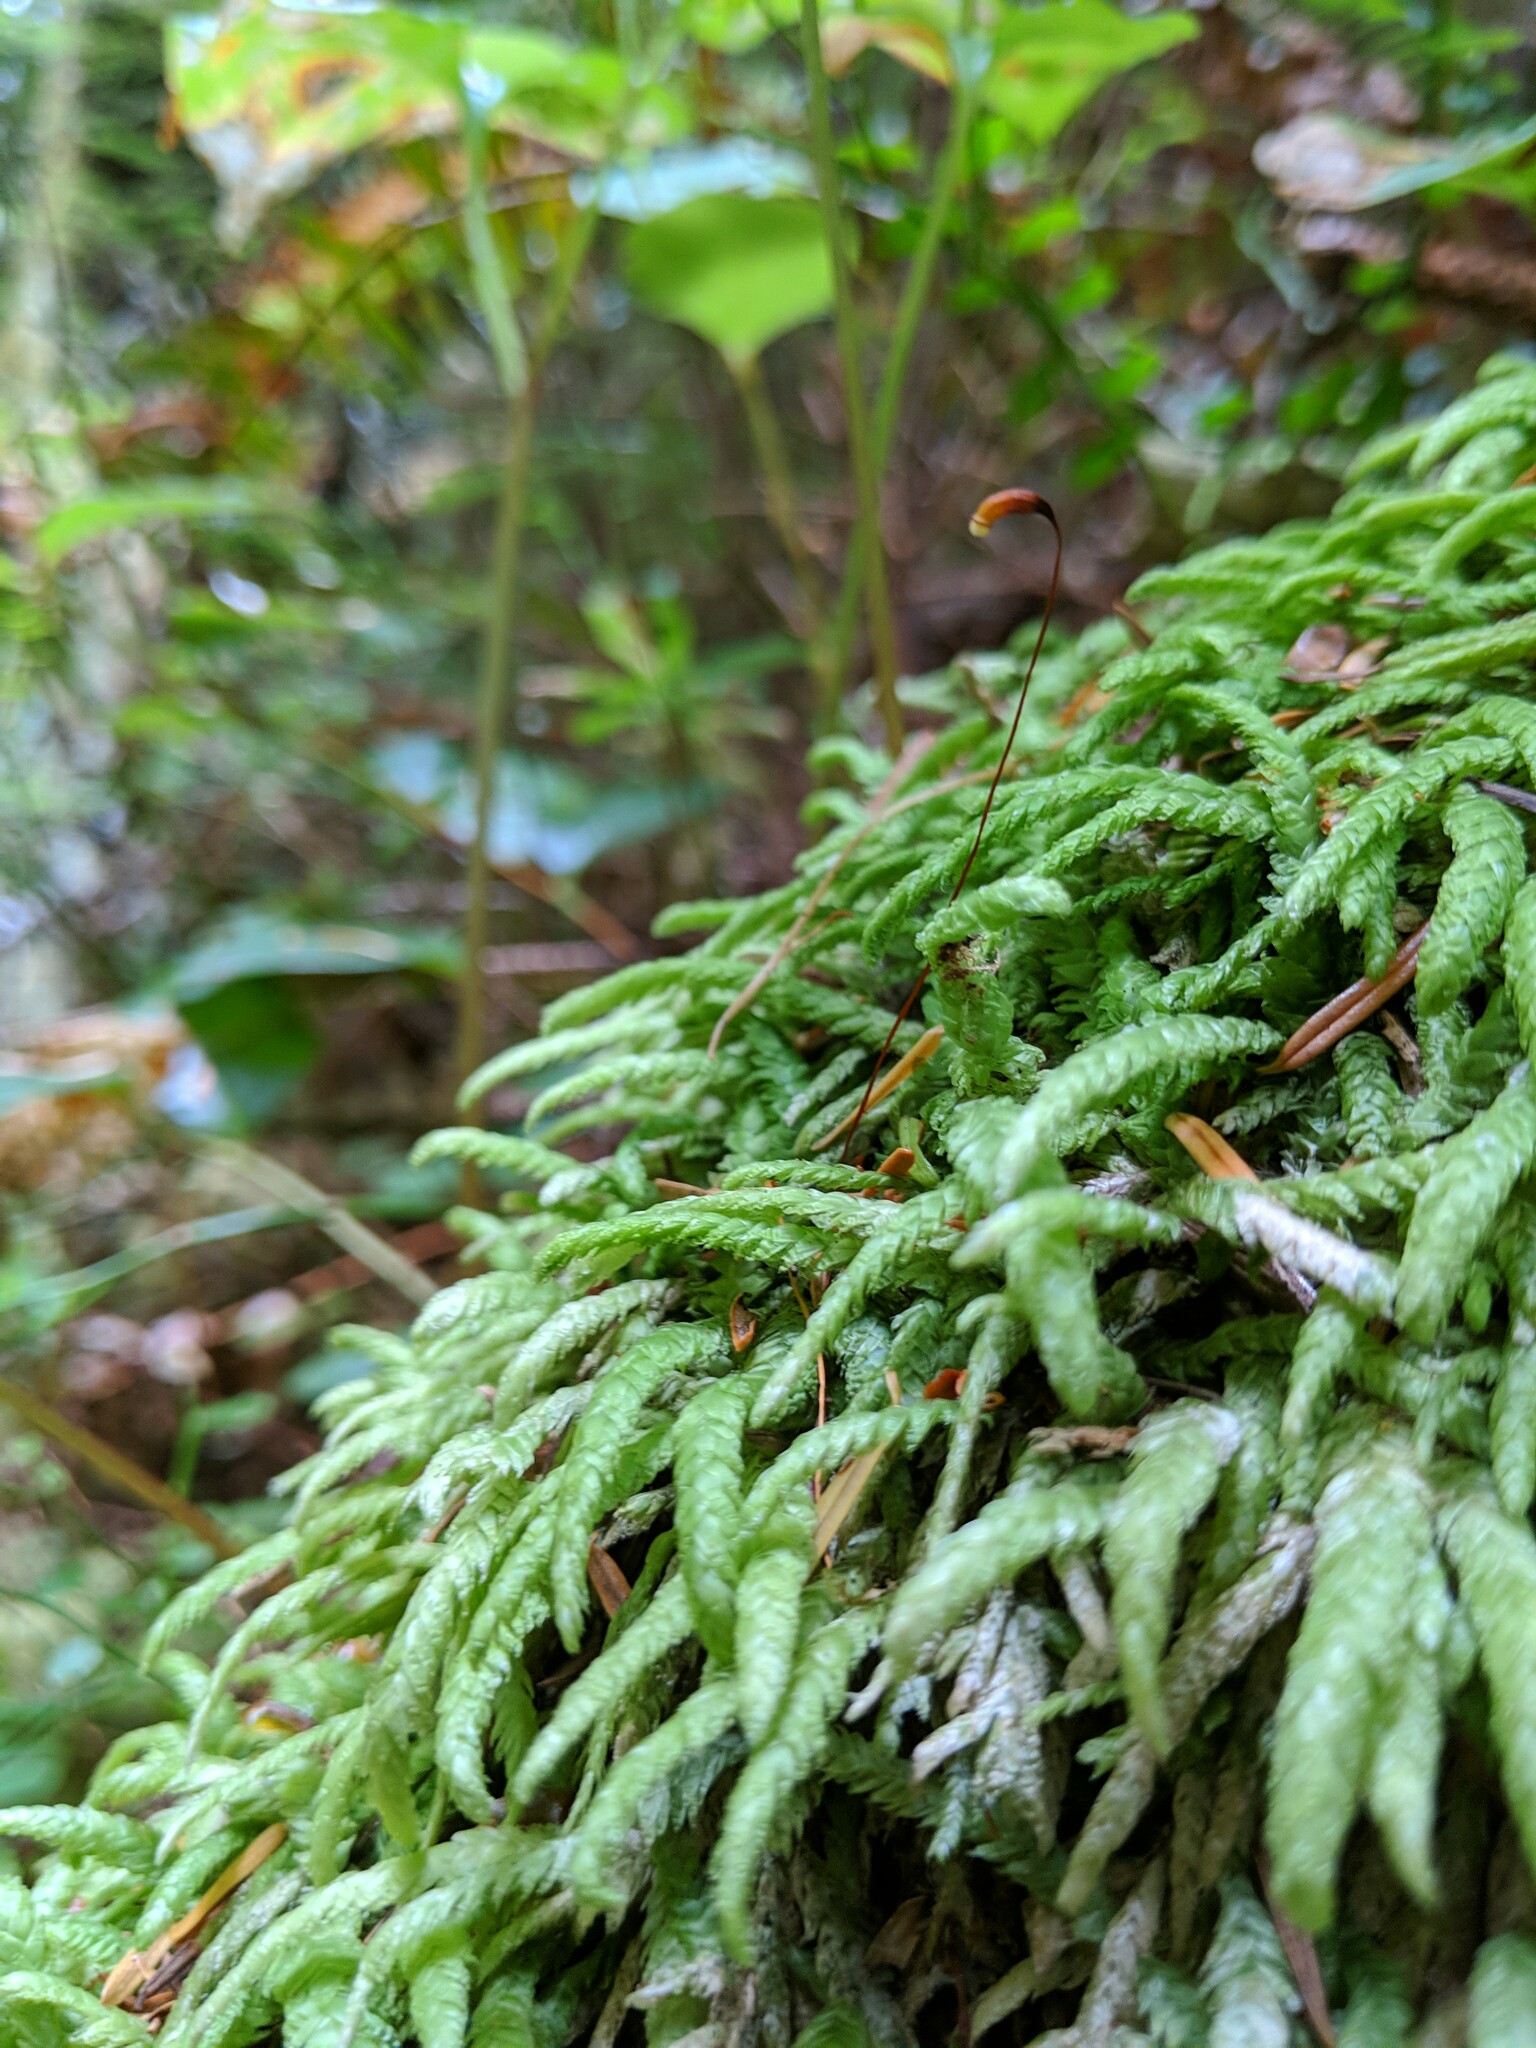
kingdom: Plantae
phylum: Bryophyta
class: Bryopsida
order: Hypnales
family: Plagiotheciaceae
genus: Plagiothecium
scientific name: Plagiothecium undulatum
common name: Waved silk-moss
